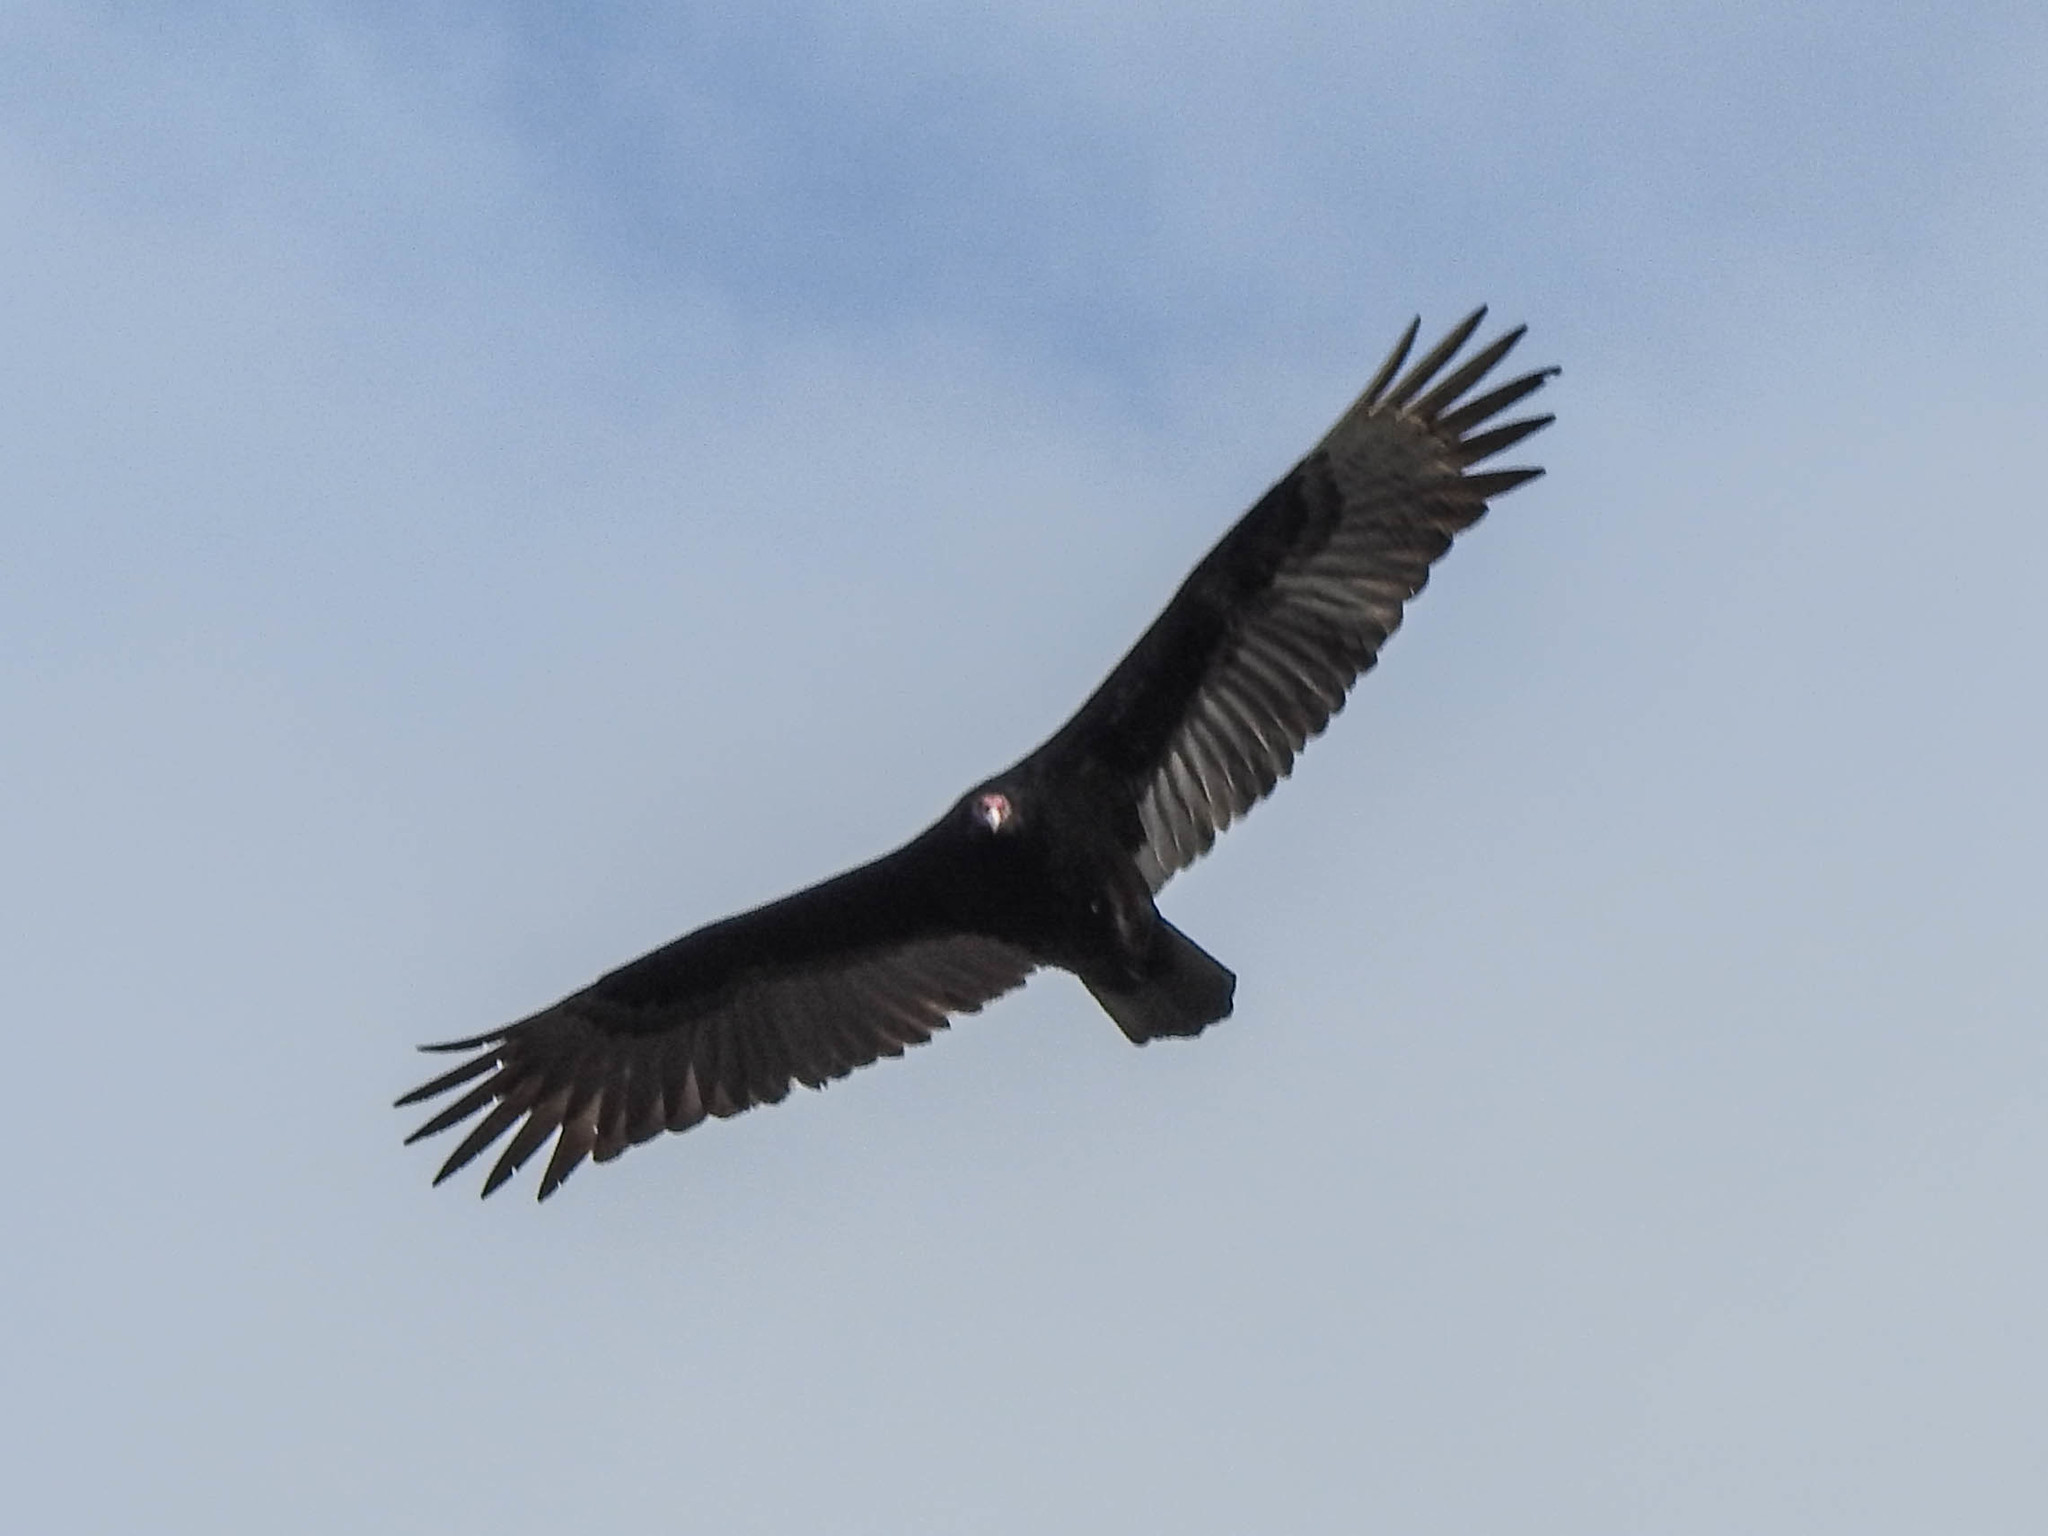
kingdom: Animalia
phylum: Chordata
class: Aves
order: Accipitriformes
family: Cathartidae
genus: Cathartes
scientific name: Cathartes aura
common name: Turkey vulture
